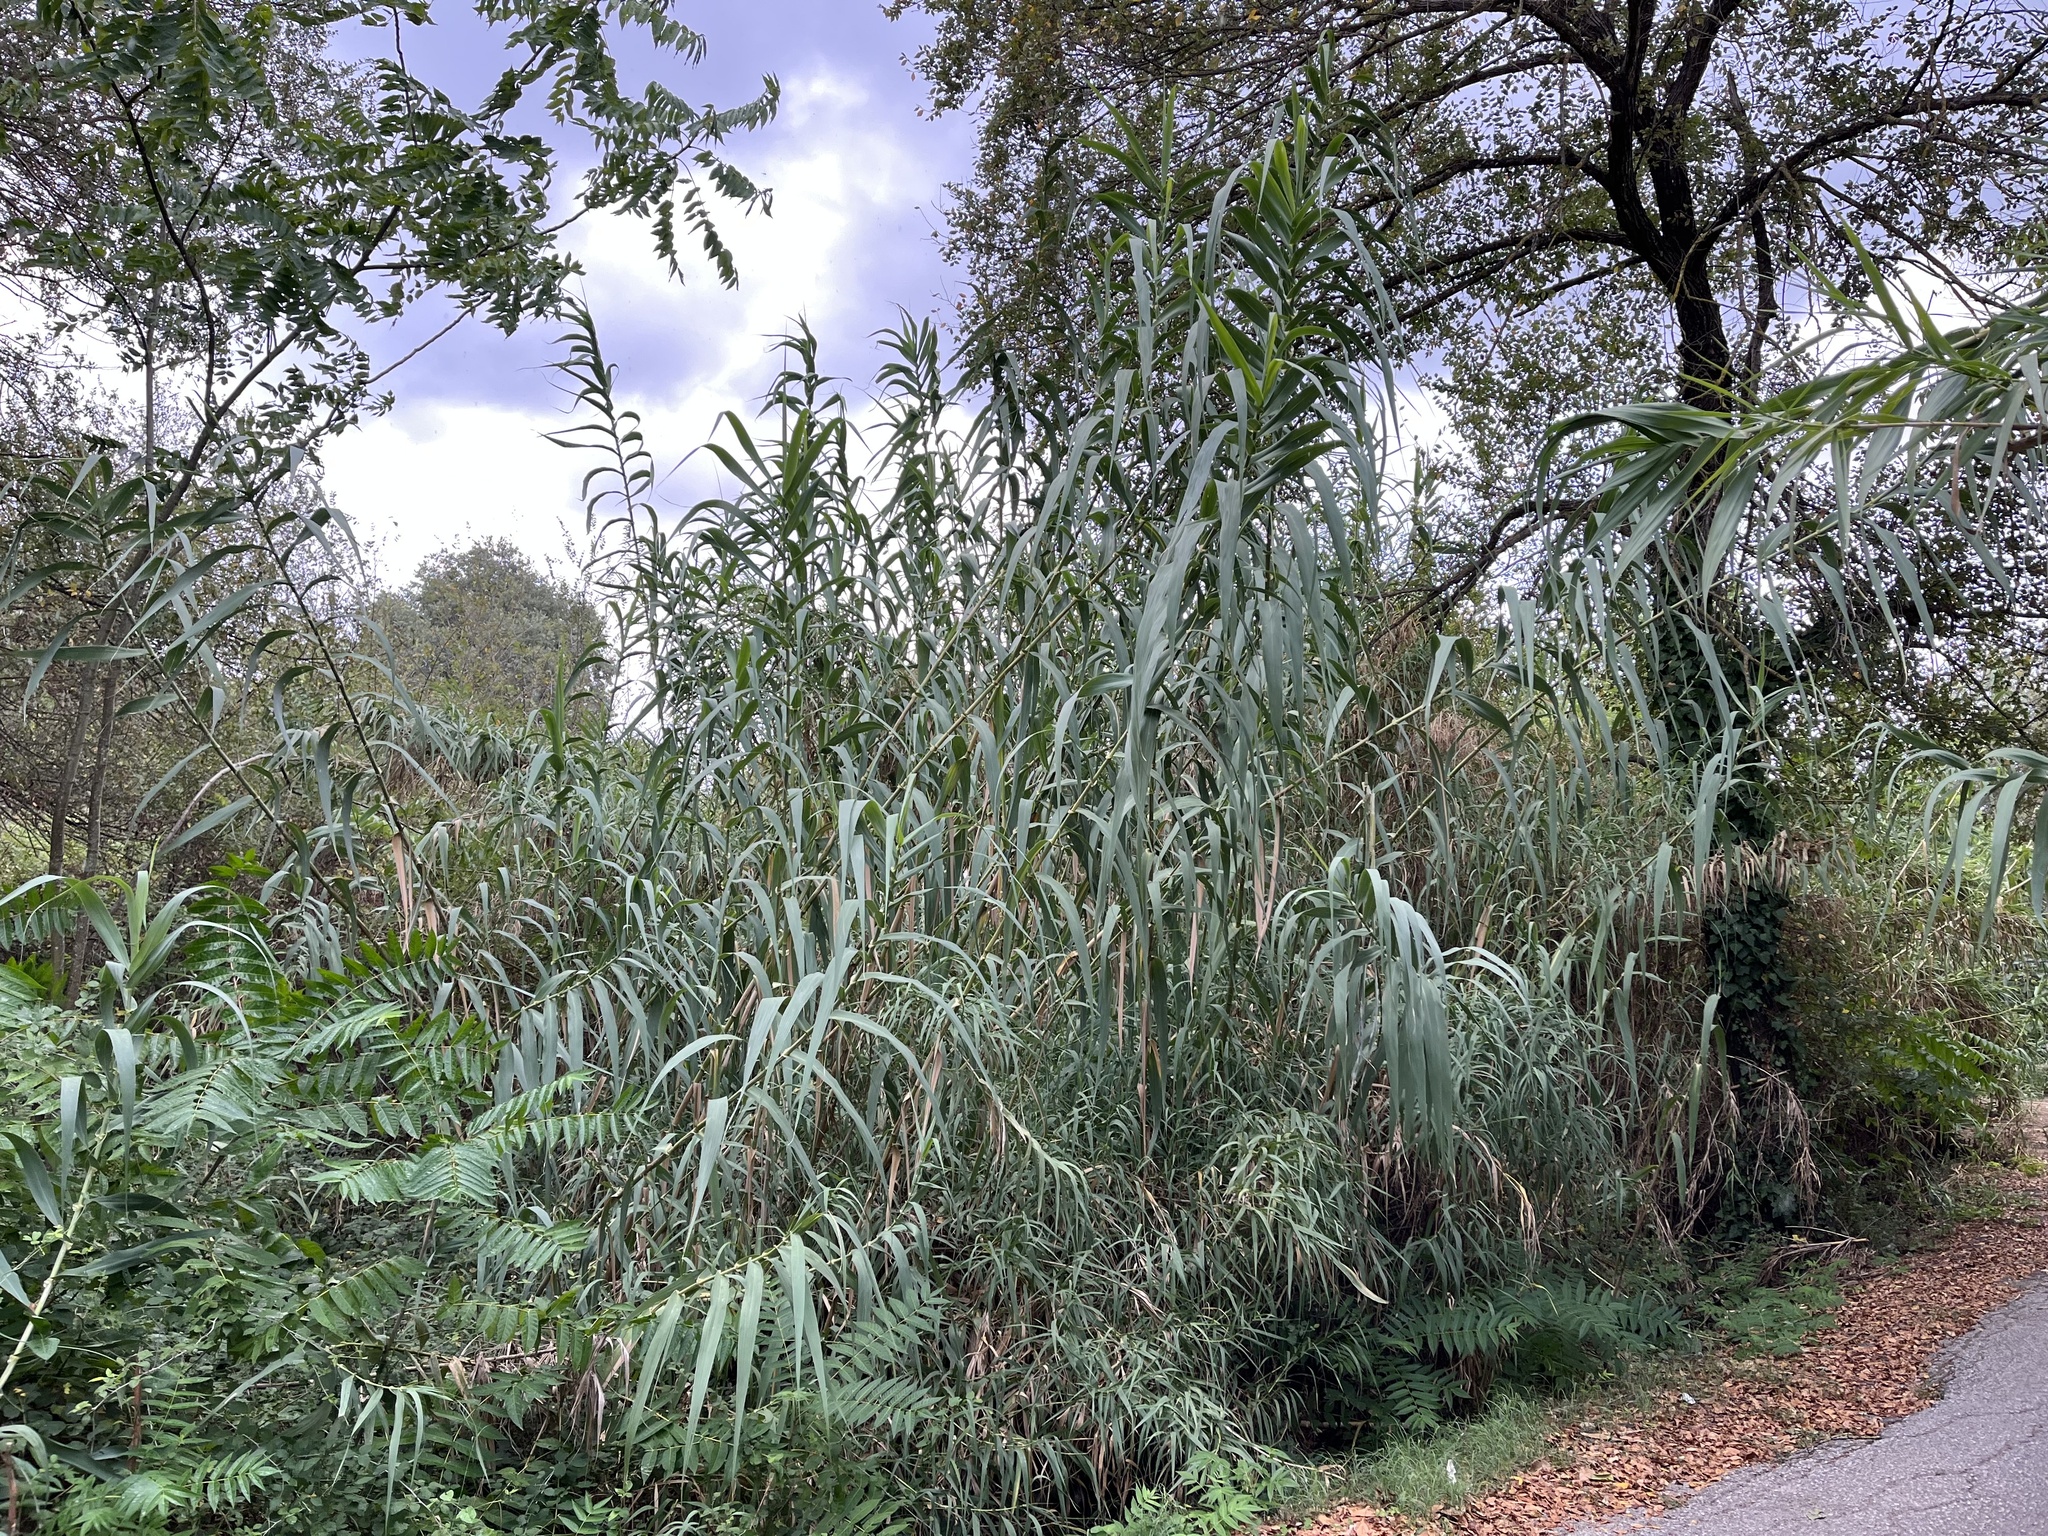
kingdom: Plantae
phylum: Tracheophyta
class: Liliopsida
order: Poales
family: Poaceae
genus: Arundo
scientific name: Arundo donax
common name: Giant reed
